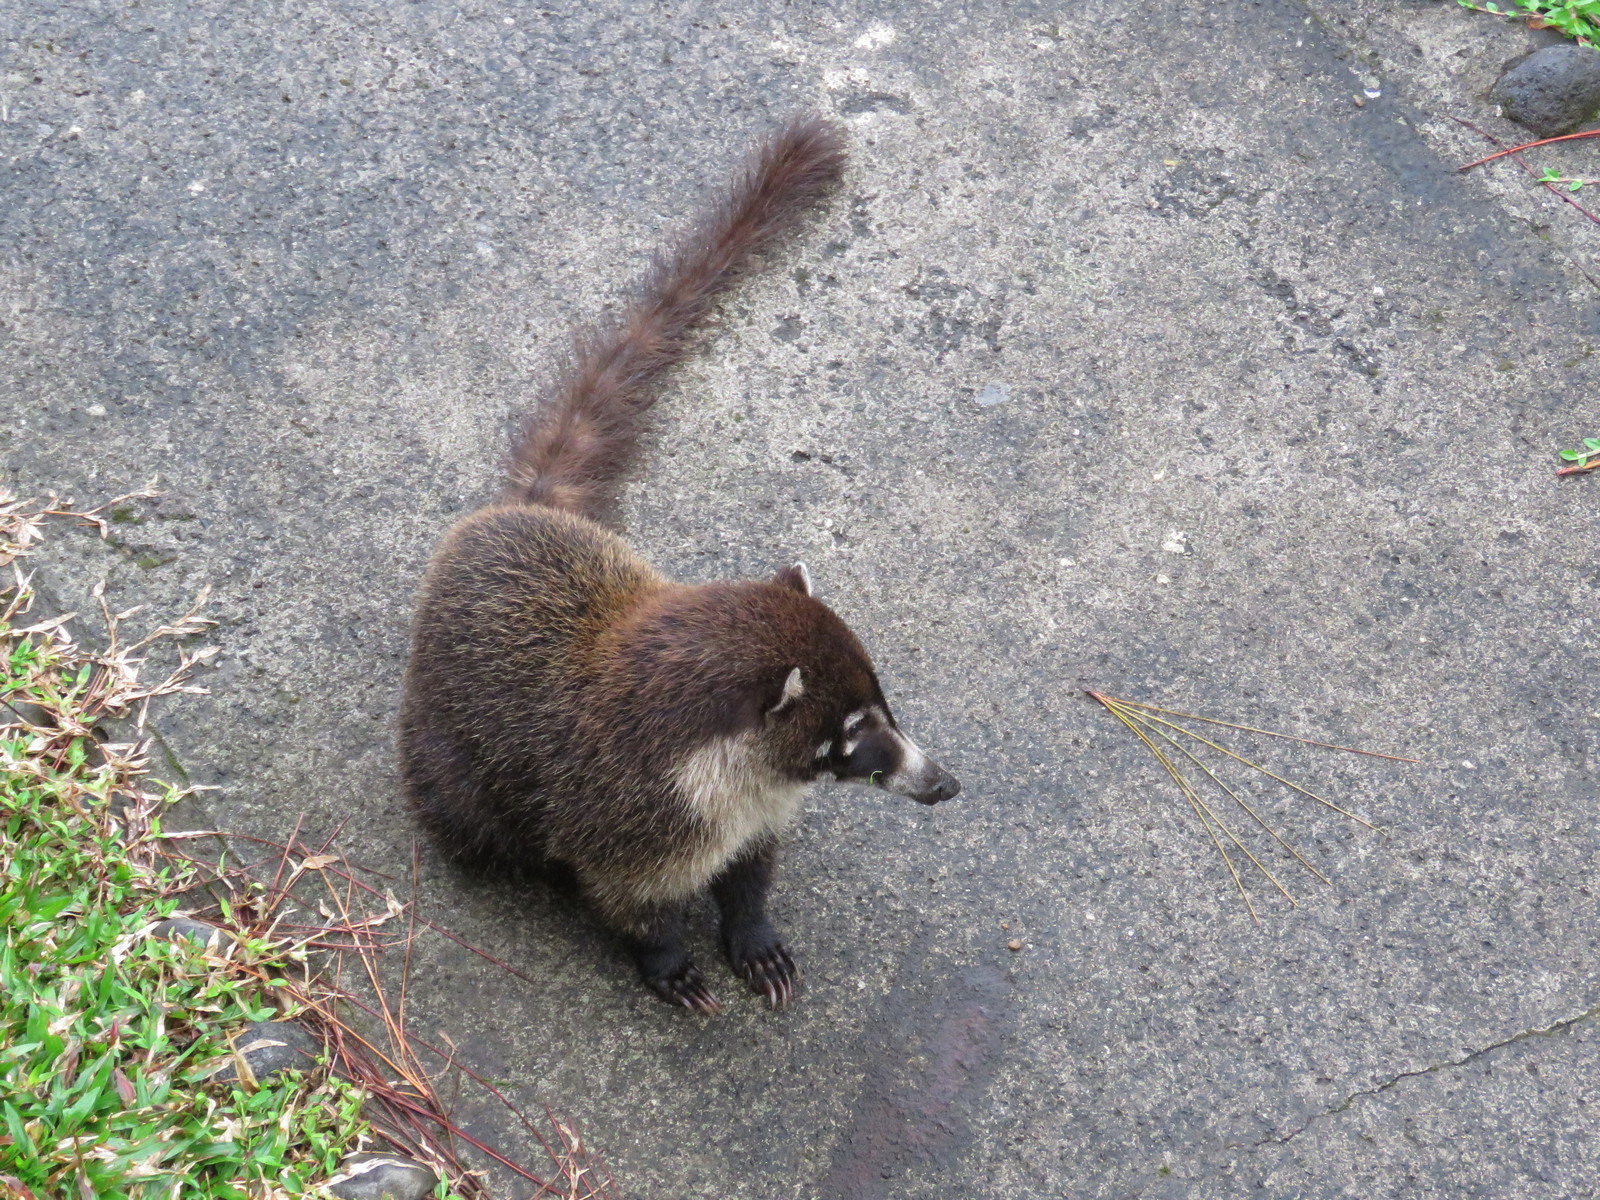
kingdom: Animalia
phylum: Chordata
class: Mammalia
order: Carnivora
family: Procyonidae
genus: Nasua
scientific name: Nasua narica
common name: White-nosed coati
